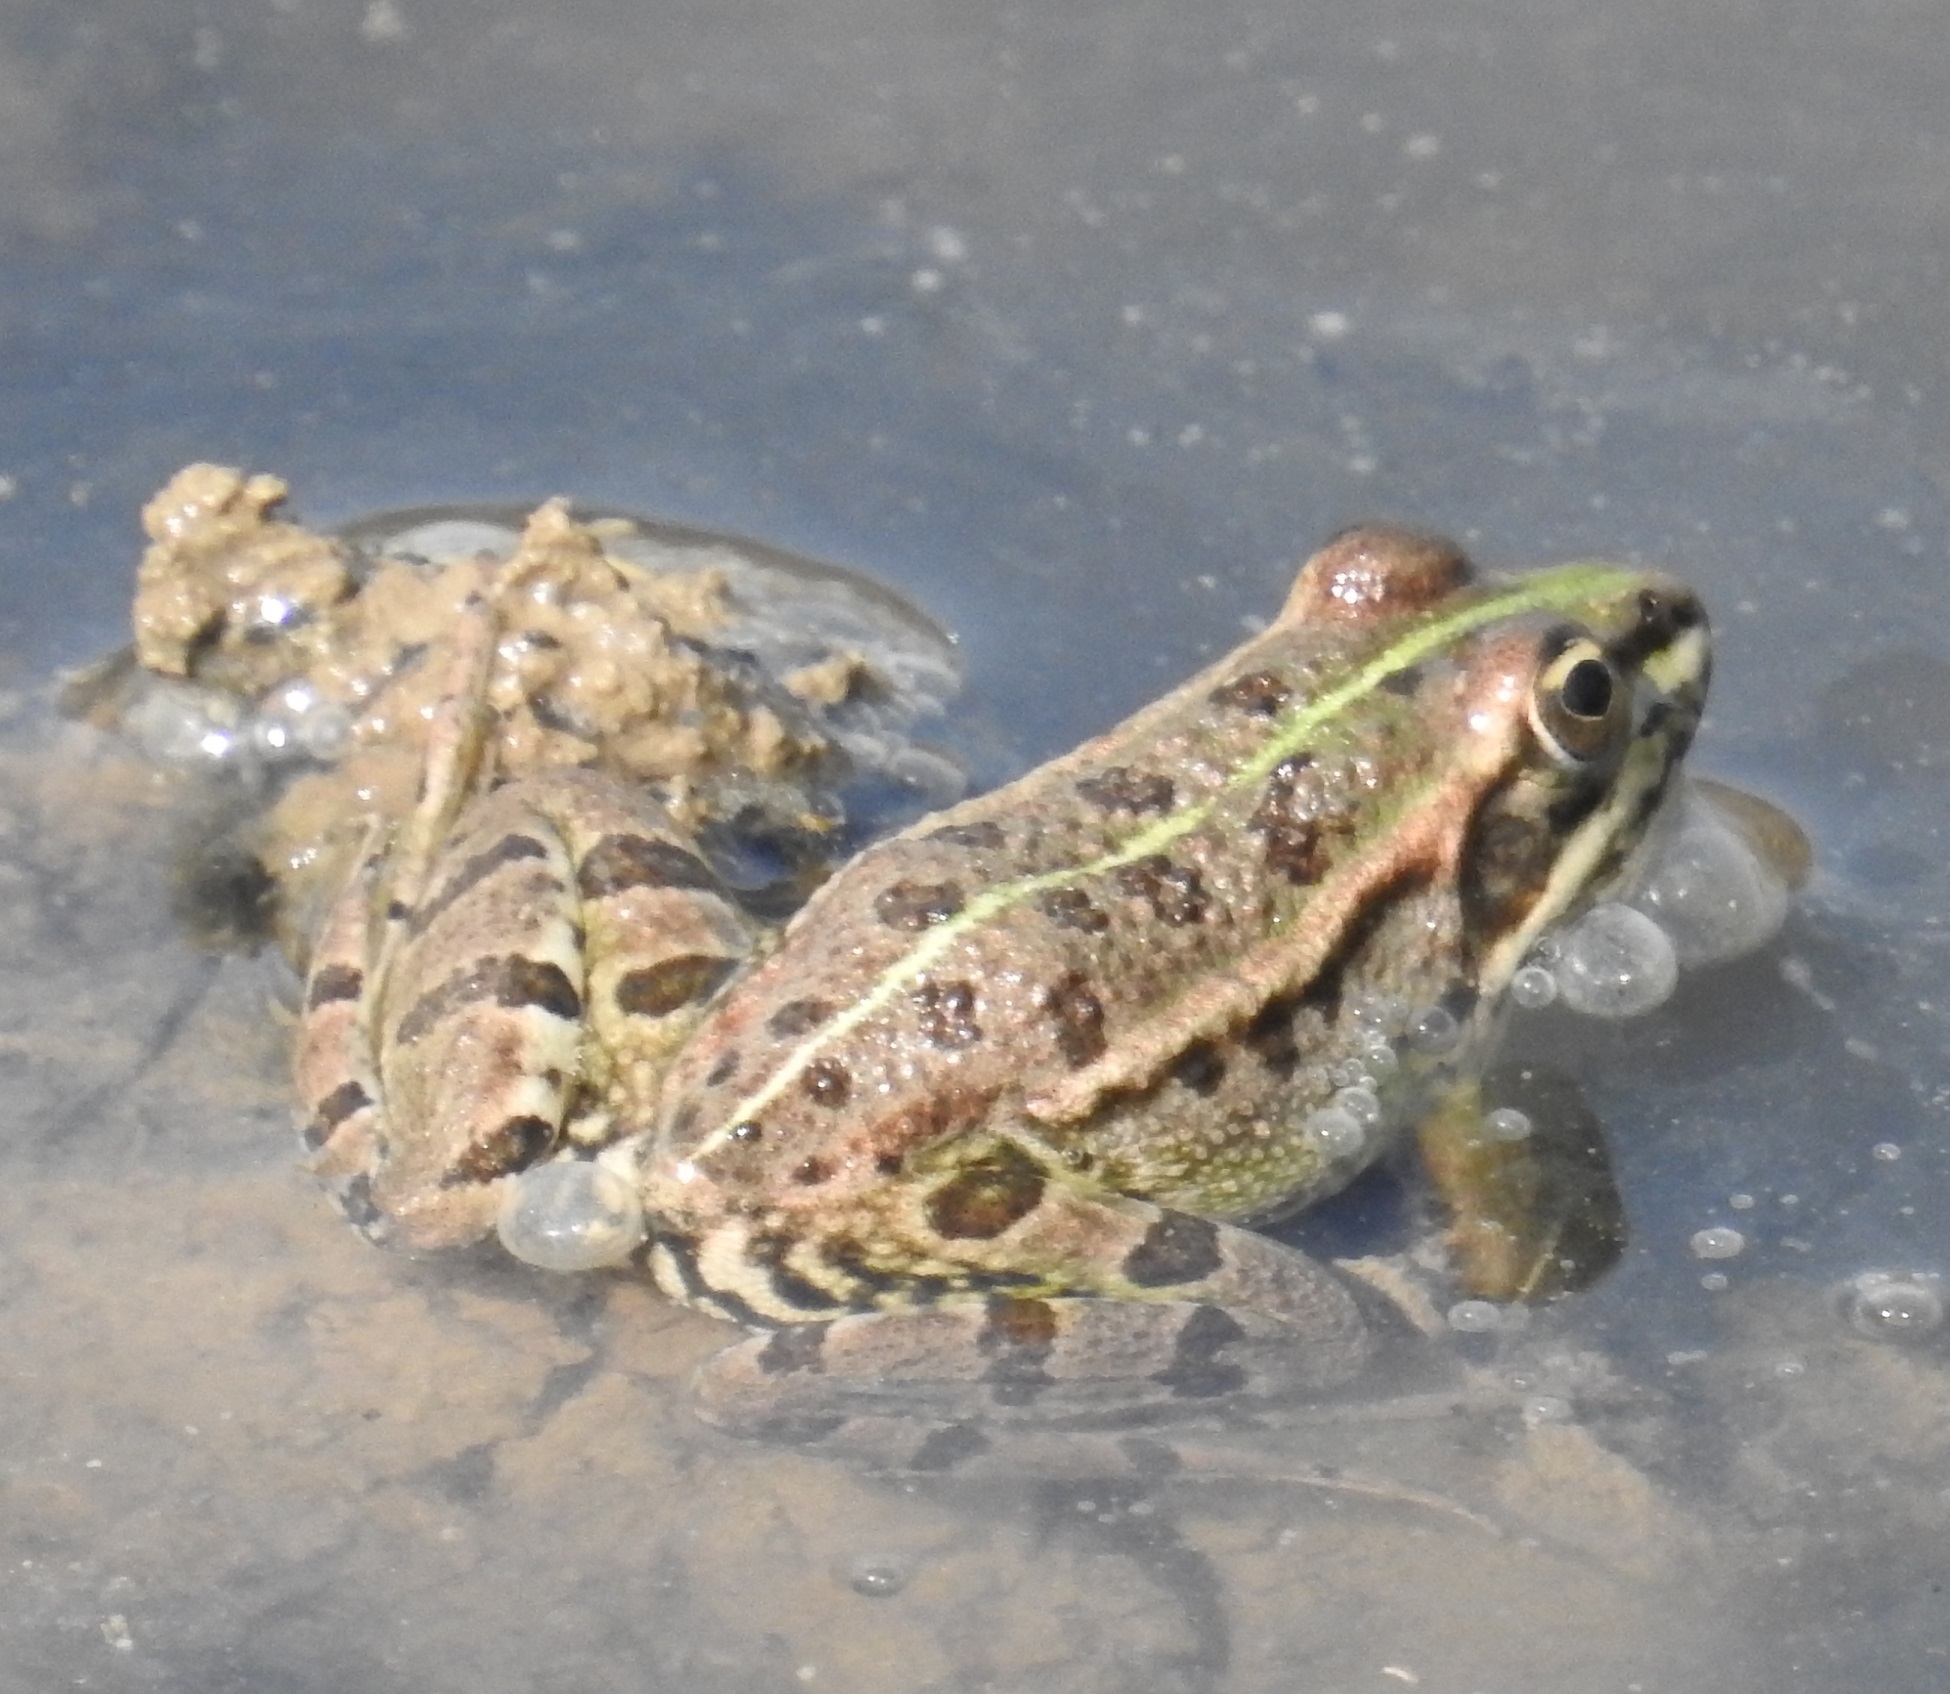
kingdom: Animalia
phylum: Chordata
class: Amphibia
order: Anura
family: Ranidae
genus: Pelophylax
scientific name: Pelophylax saharicus
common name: Sahara frog
